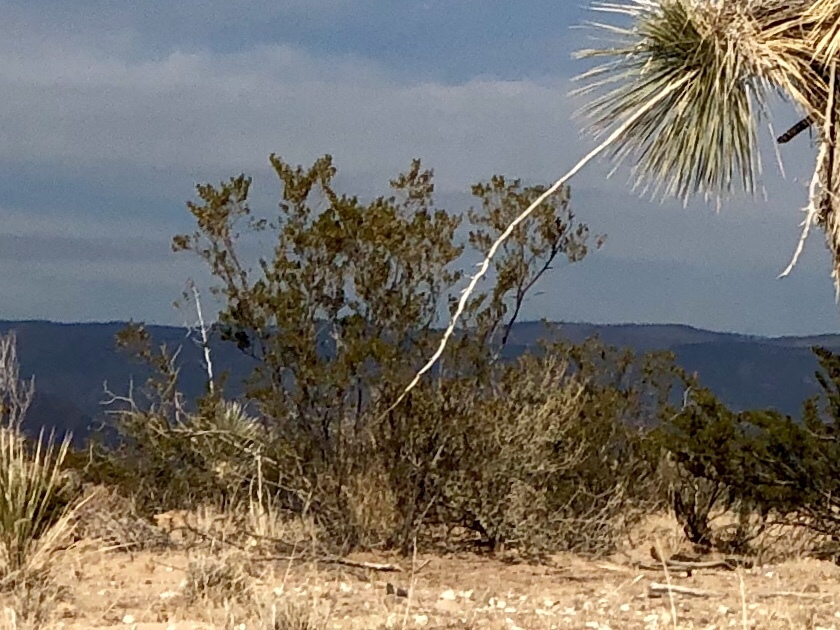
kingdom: Plantae
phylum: Tracheophyta
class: Magnoliopsida
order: Zygophyllales
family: Zygophyllaceae
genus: Larrea
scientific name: Larrea tridentata
